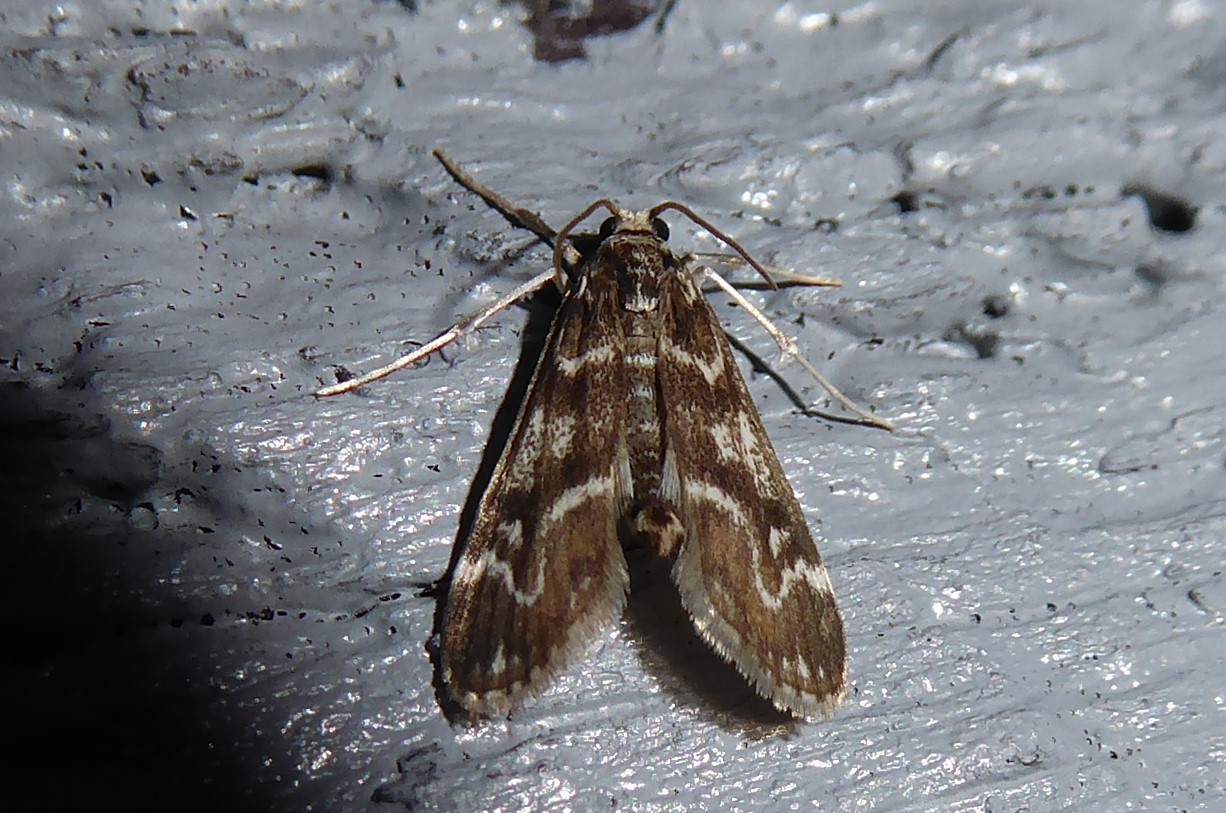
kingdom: Animalia
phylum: Arthropoda
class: Insecta
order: Lepidoptera
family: Crambidae
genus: Hygraula
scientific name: Hygraula nitens
